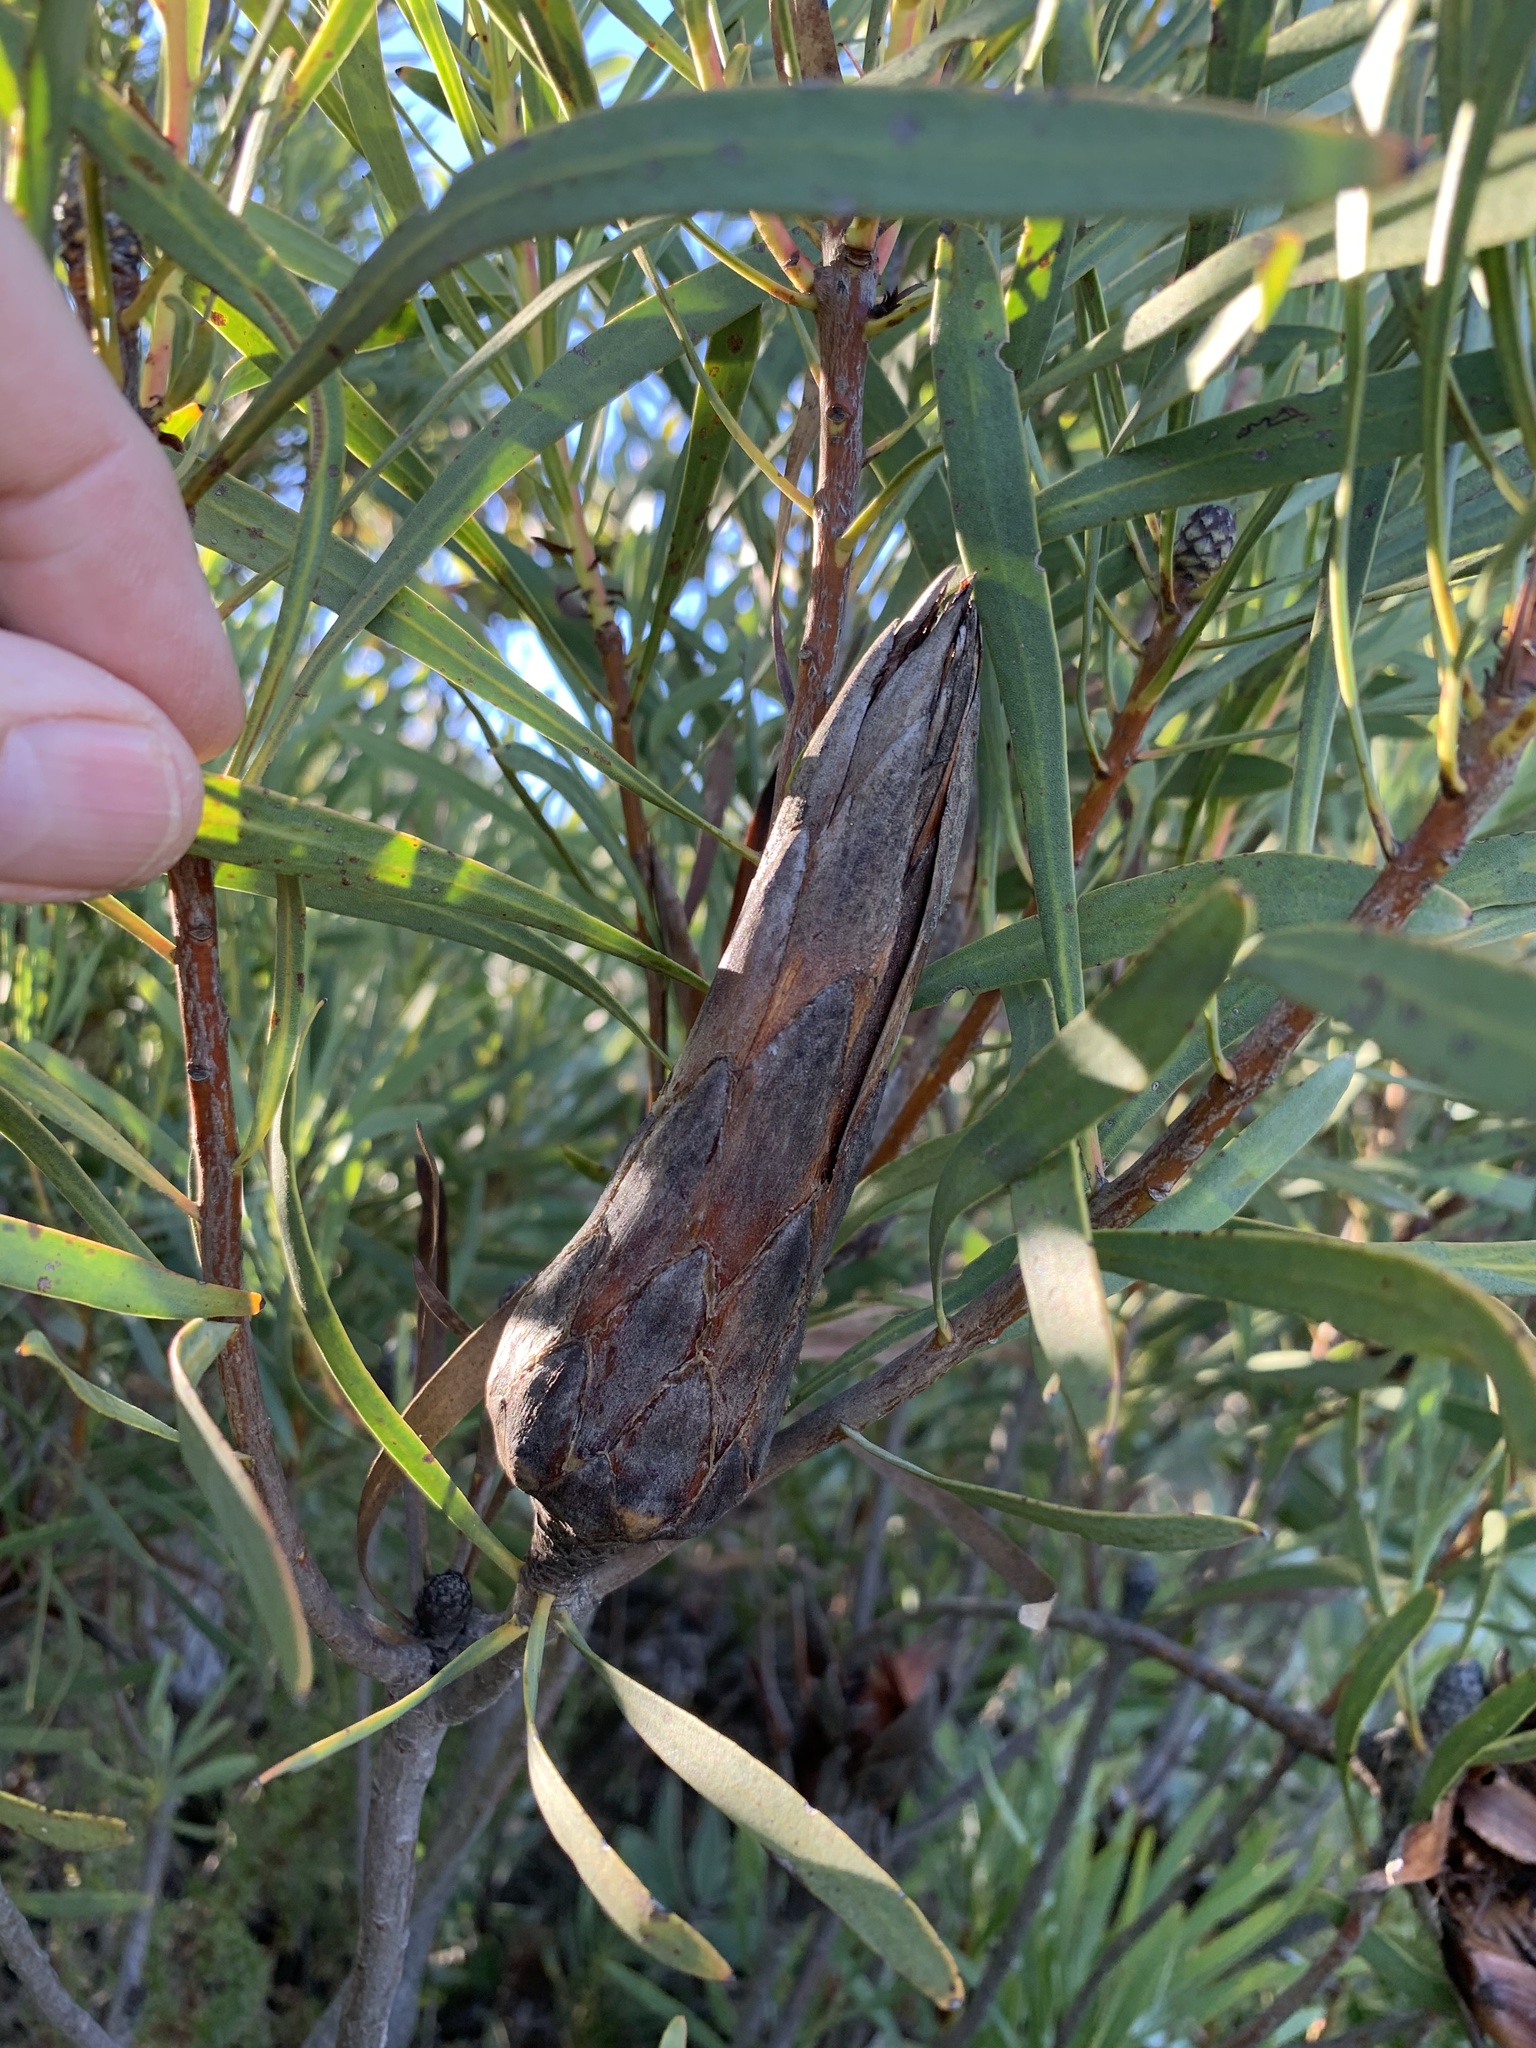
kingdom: Plantae
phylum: Tracheophyta
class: Magnoliopsida
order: Proteales
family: Proteaceae
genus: Protea
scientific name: Protea repens
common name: Sugarbush
